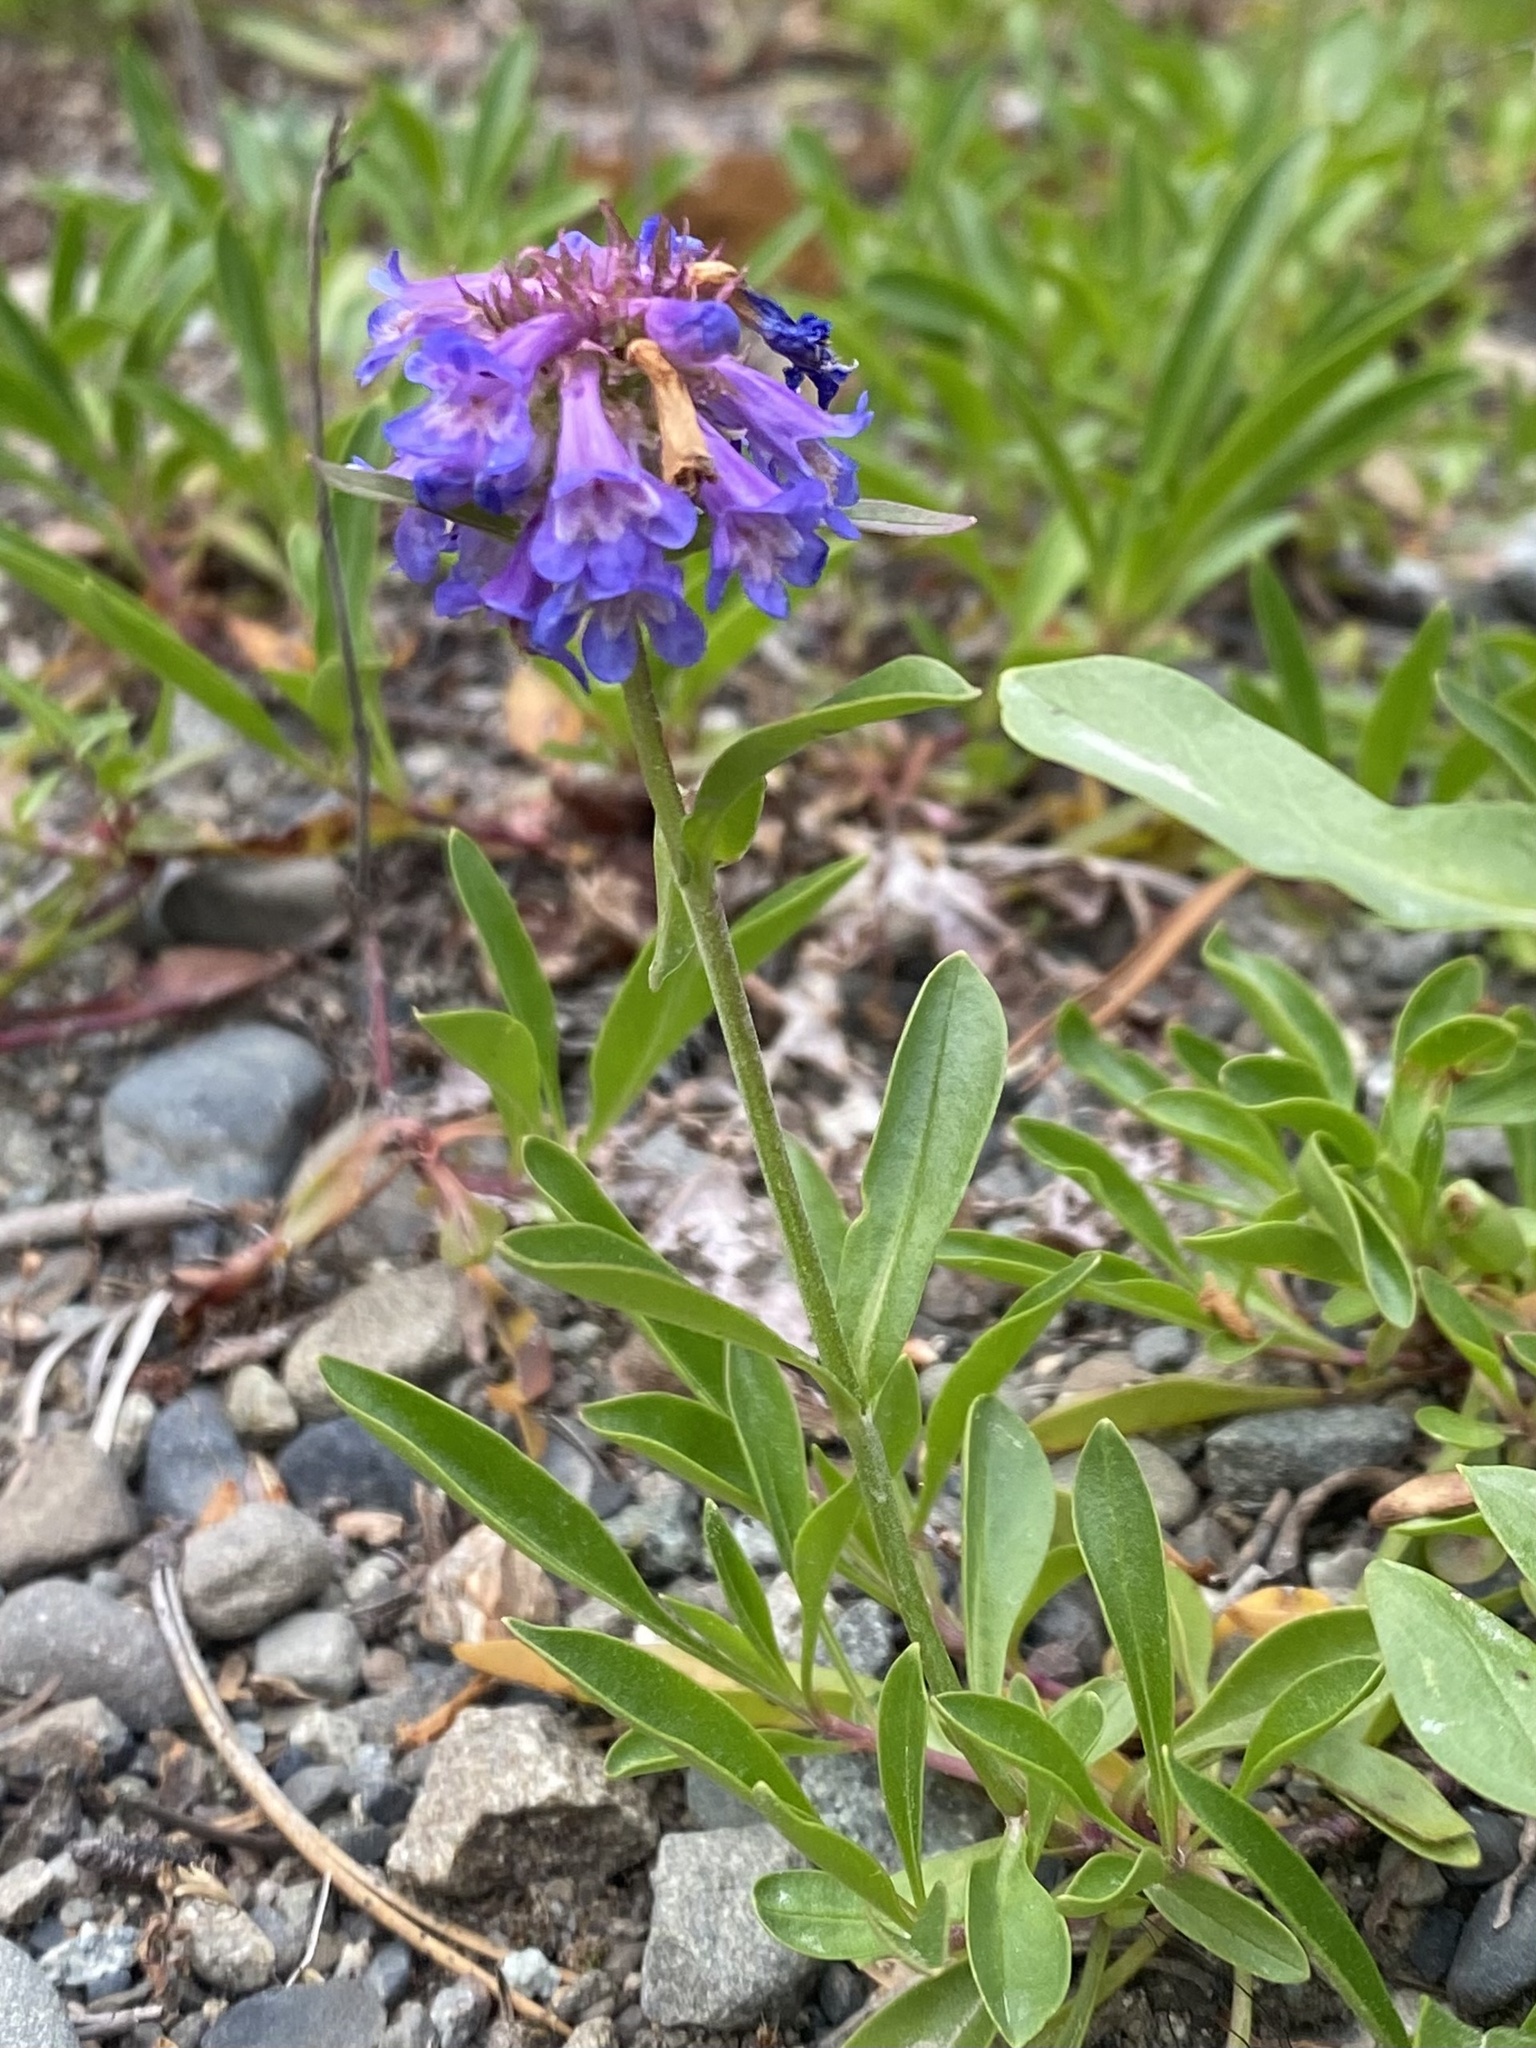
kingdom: Plantae
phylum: Tracheophyta
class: Magnoliopsida
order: Lamiales
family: Plantaginaceae
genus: Penstemon
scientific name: Penstemon procerus
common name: Small-flower penstemon
